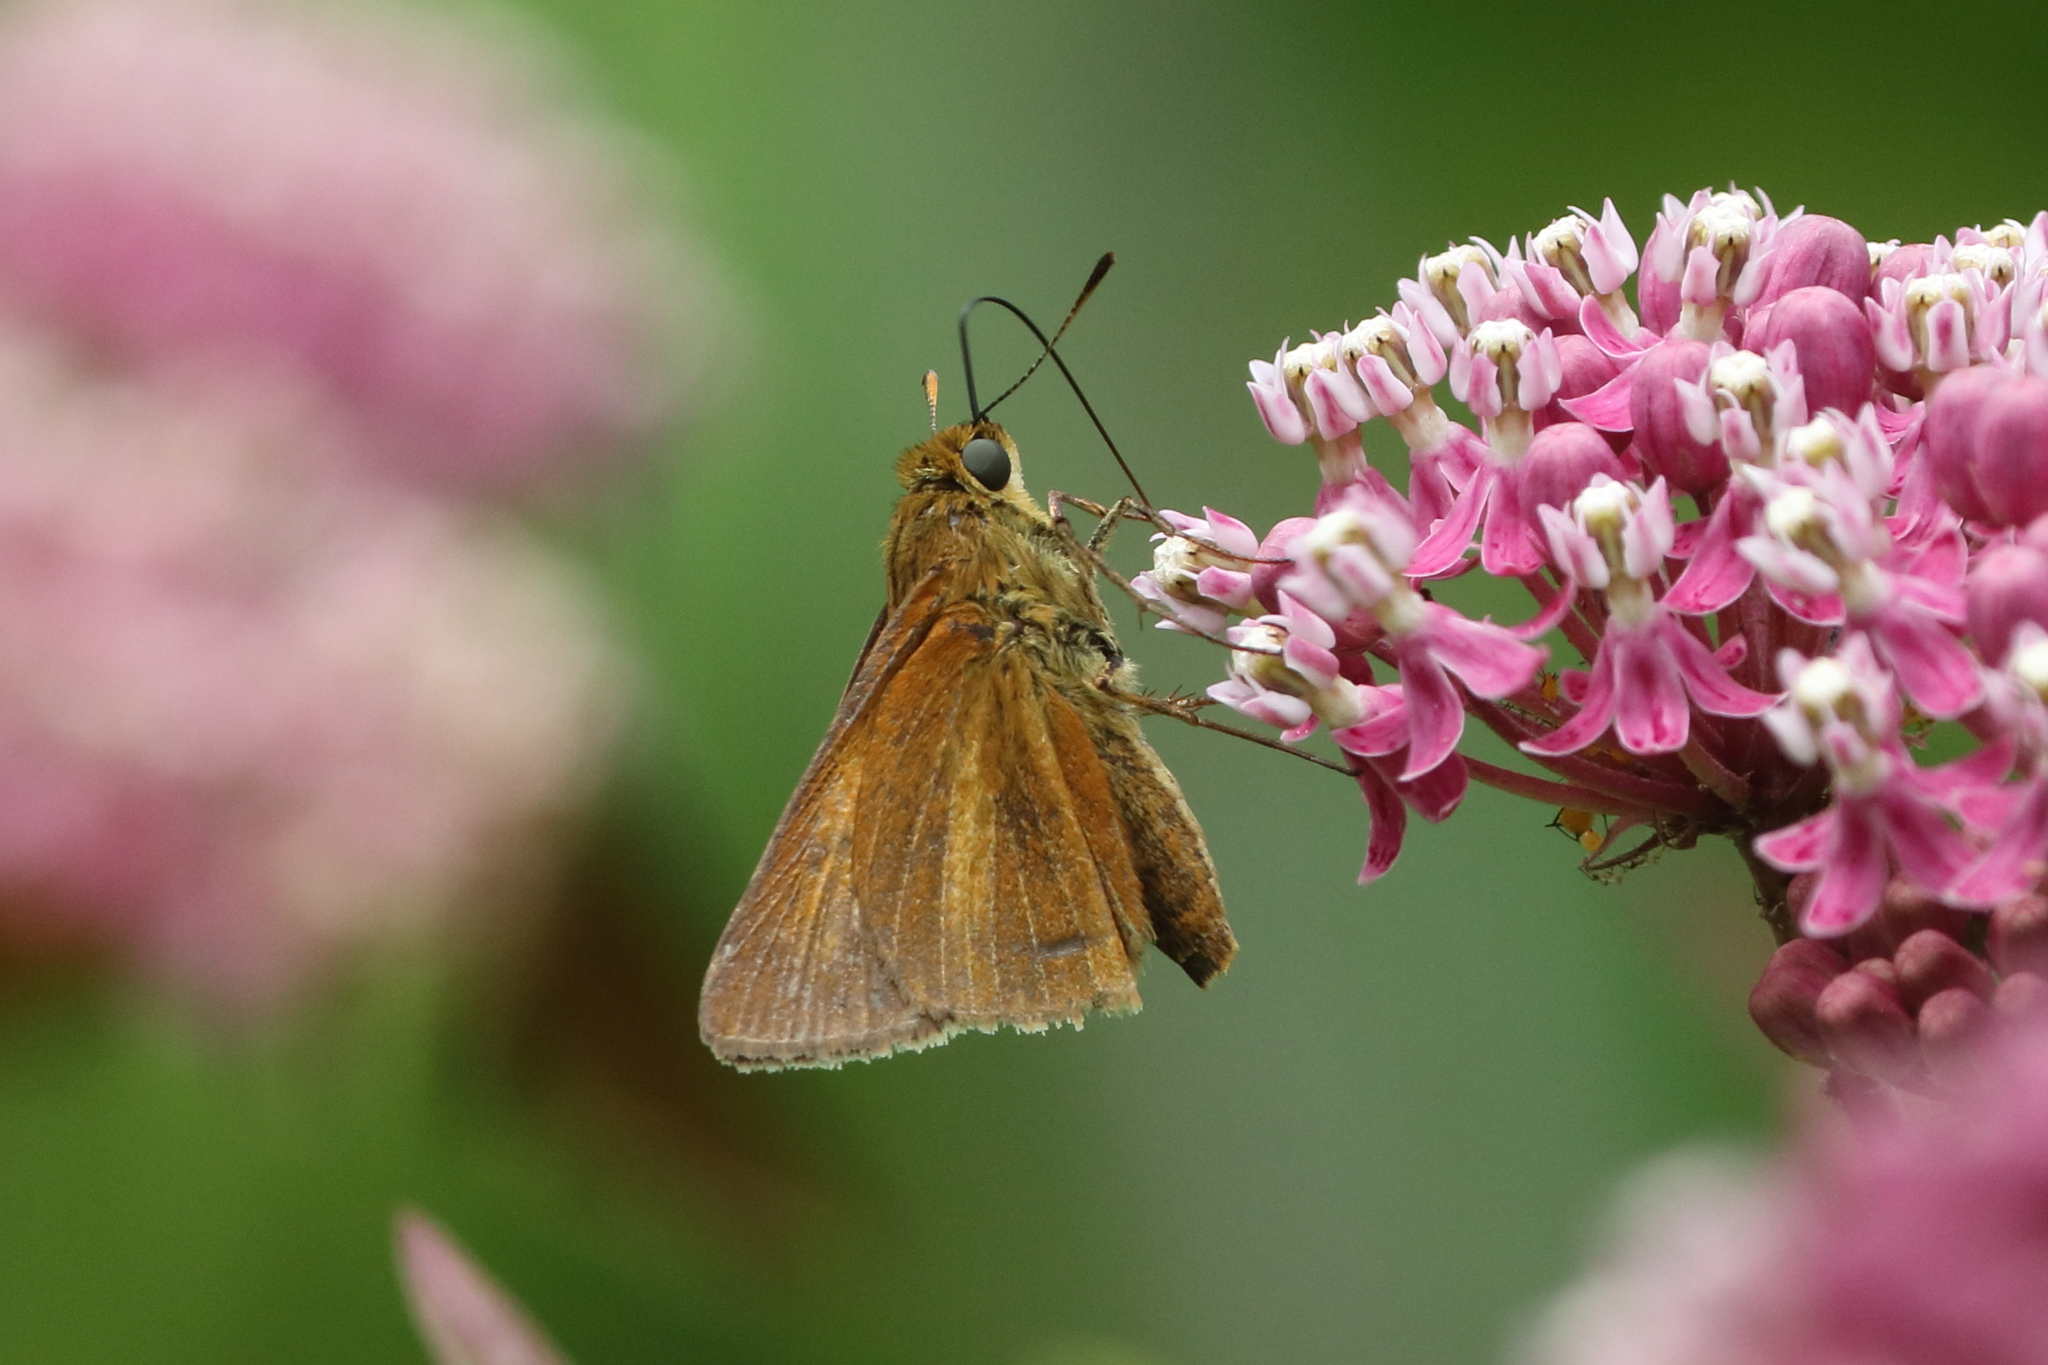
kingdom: Animalia
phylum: Arthropoda
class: Insecta
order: Lepidoptera
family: Hesperiidae
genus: Euphyes
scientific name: Euphyes dion
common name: Dion skipper
